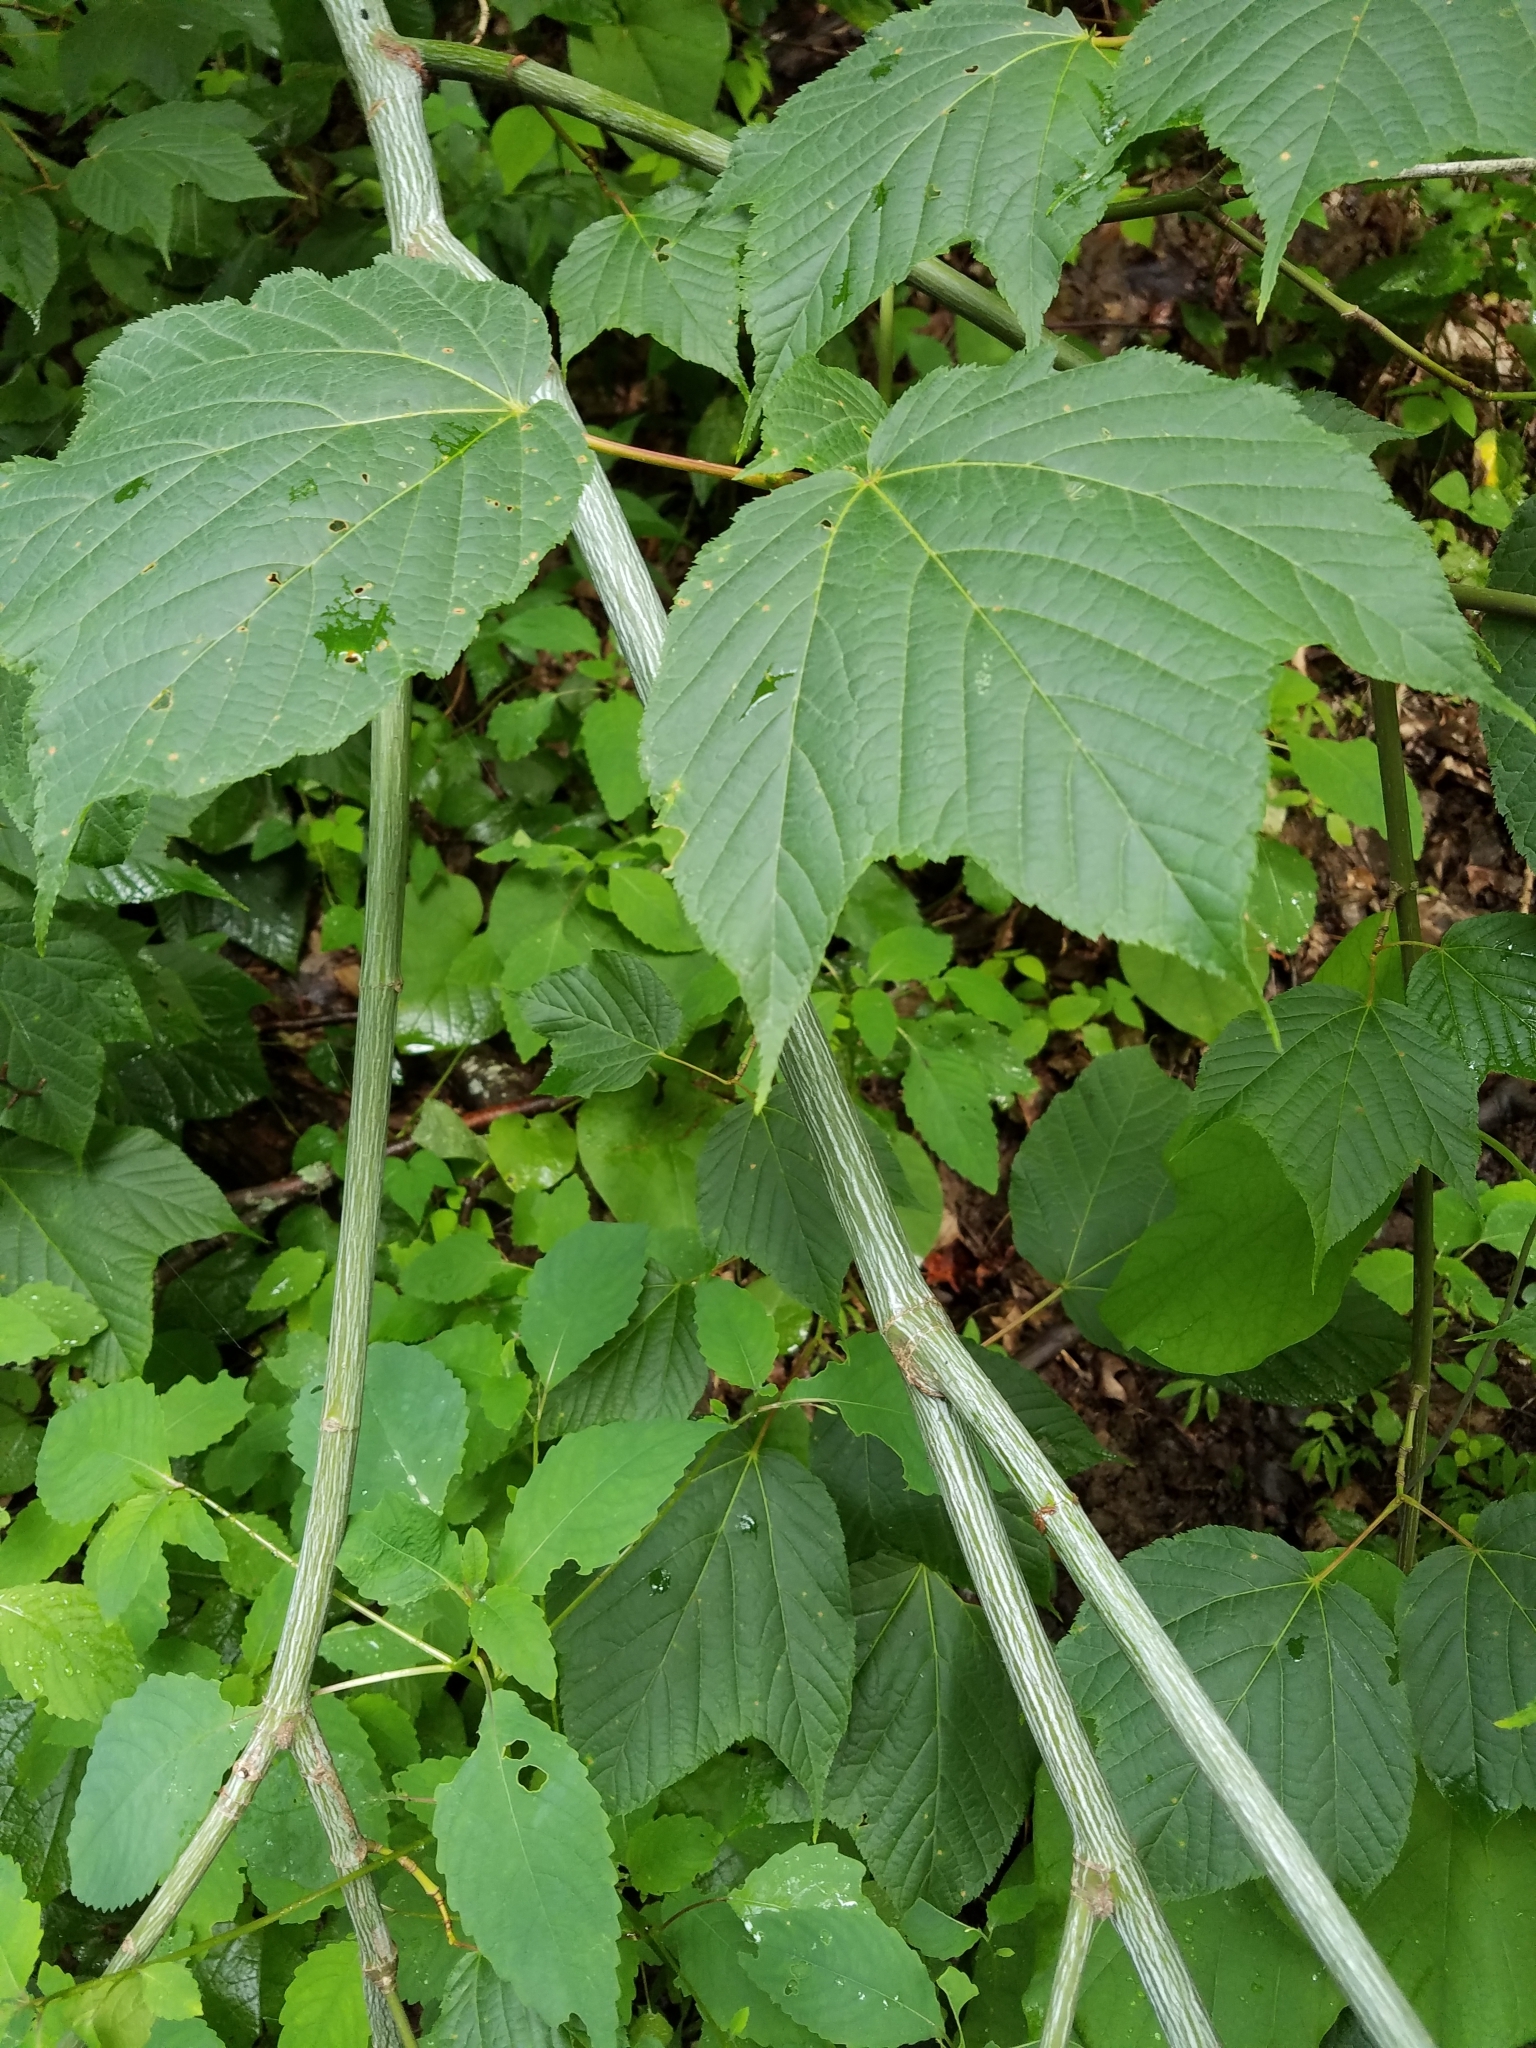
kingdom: Plantae
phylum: Tracheophyta
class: Magnoliopsida
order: Sapindales
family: Sapindaceae
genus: Acer
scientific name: Acer pensylvanicum
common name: Moosewood
